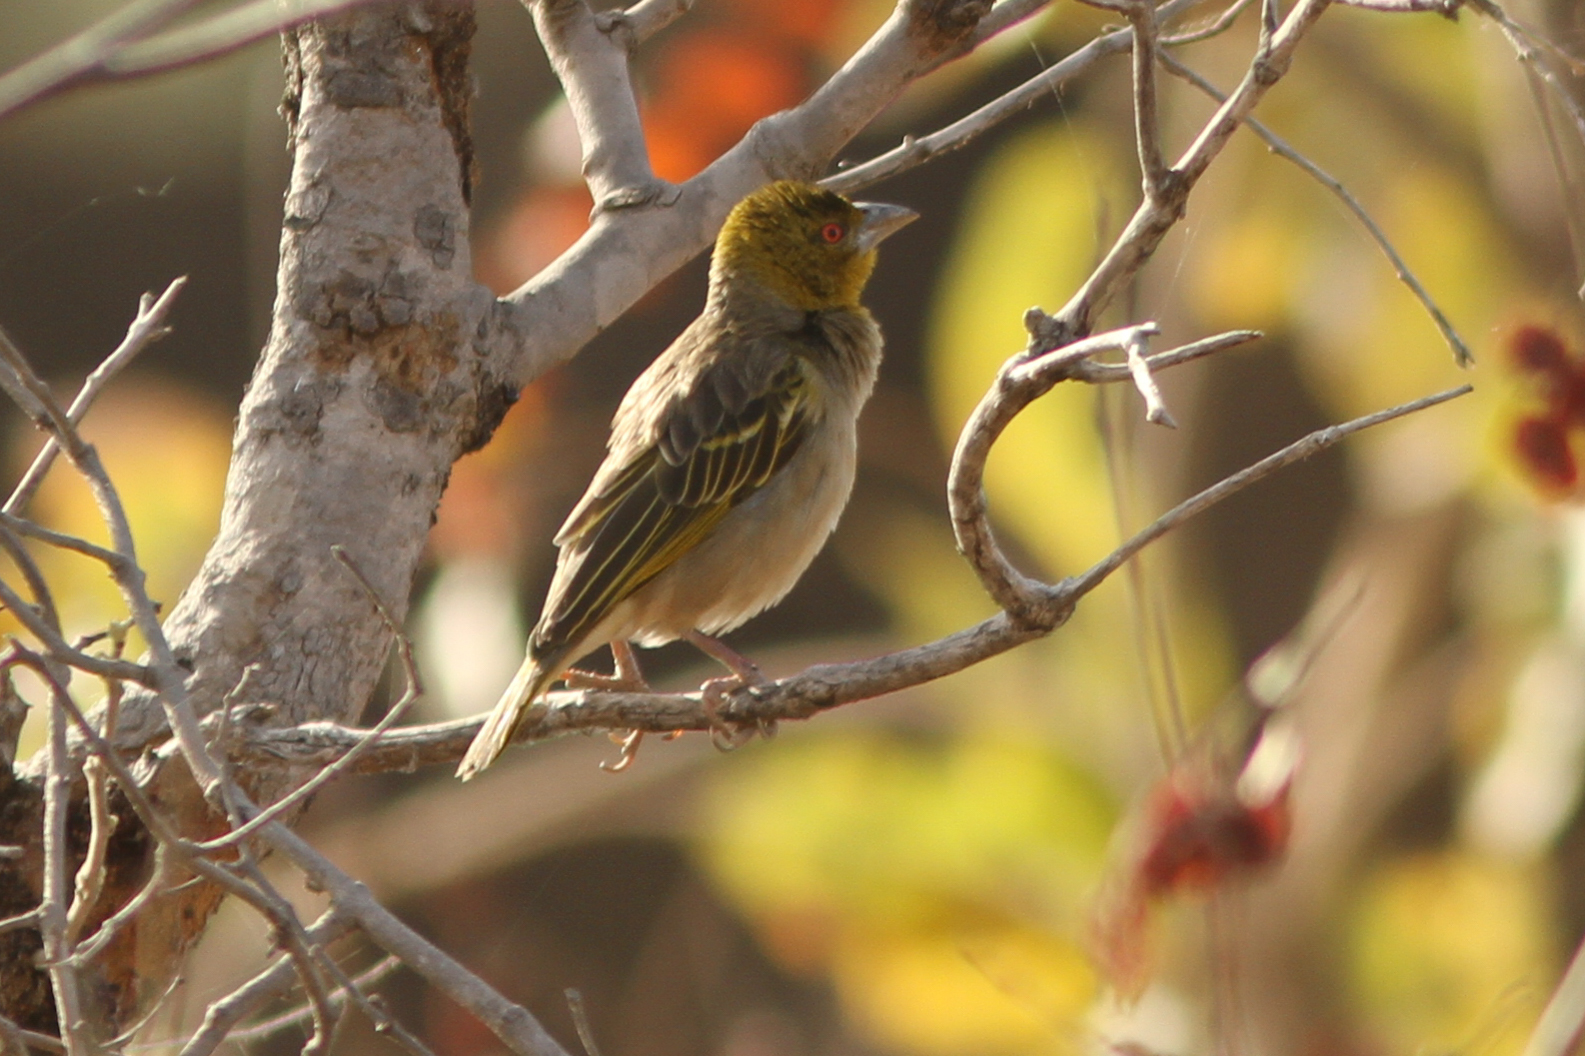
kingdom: Animalia
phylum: Chordata
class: Aves
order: Passeriformes
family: Ploceidae
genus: Ploceus
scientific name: Ploceus cucullatus
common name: Village weaver
